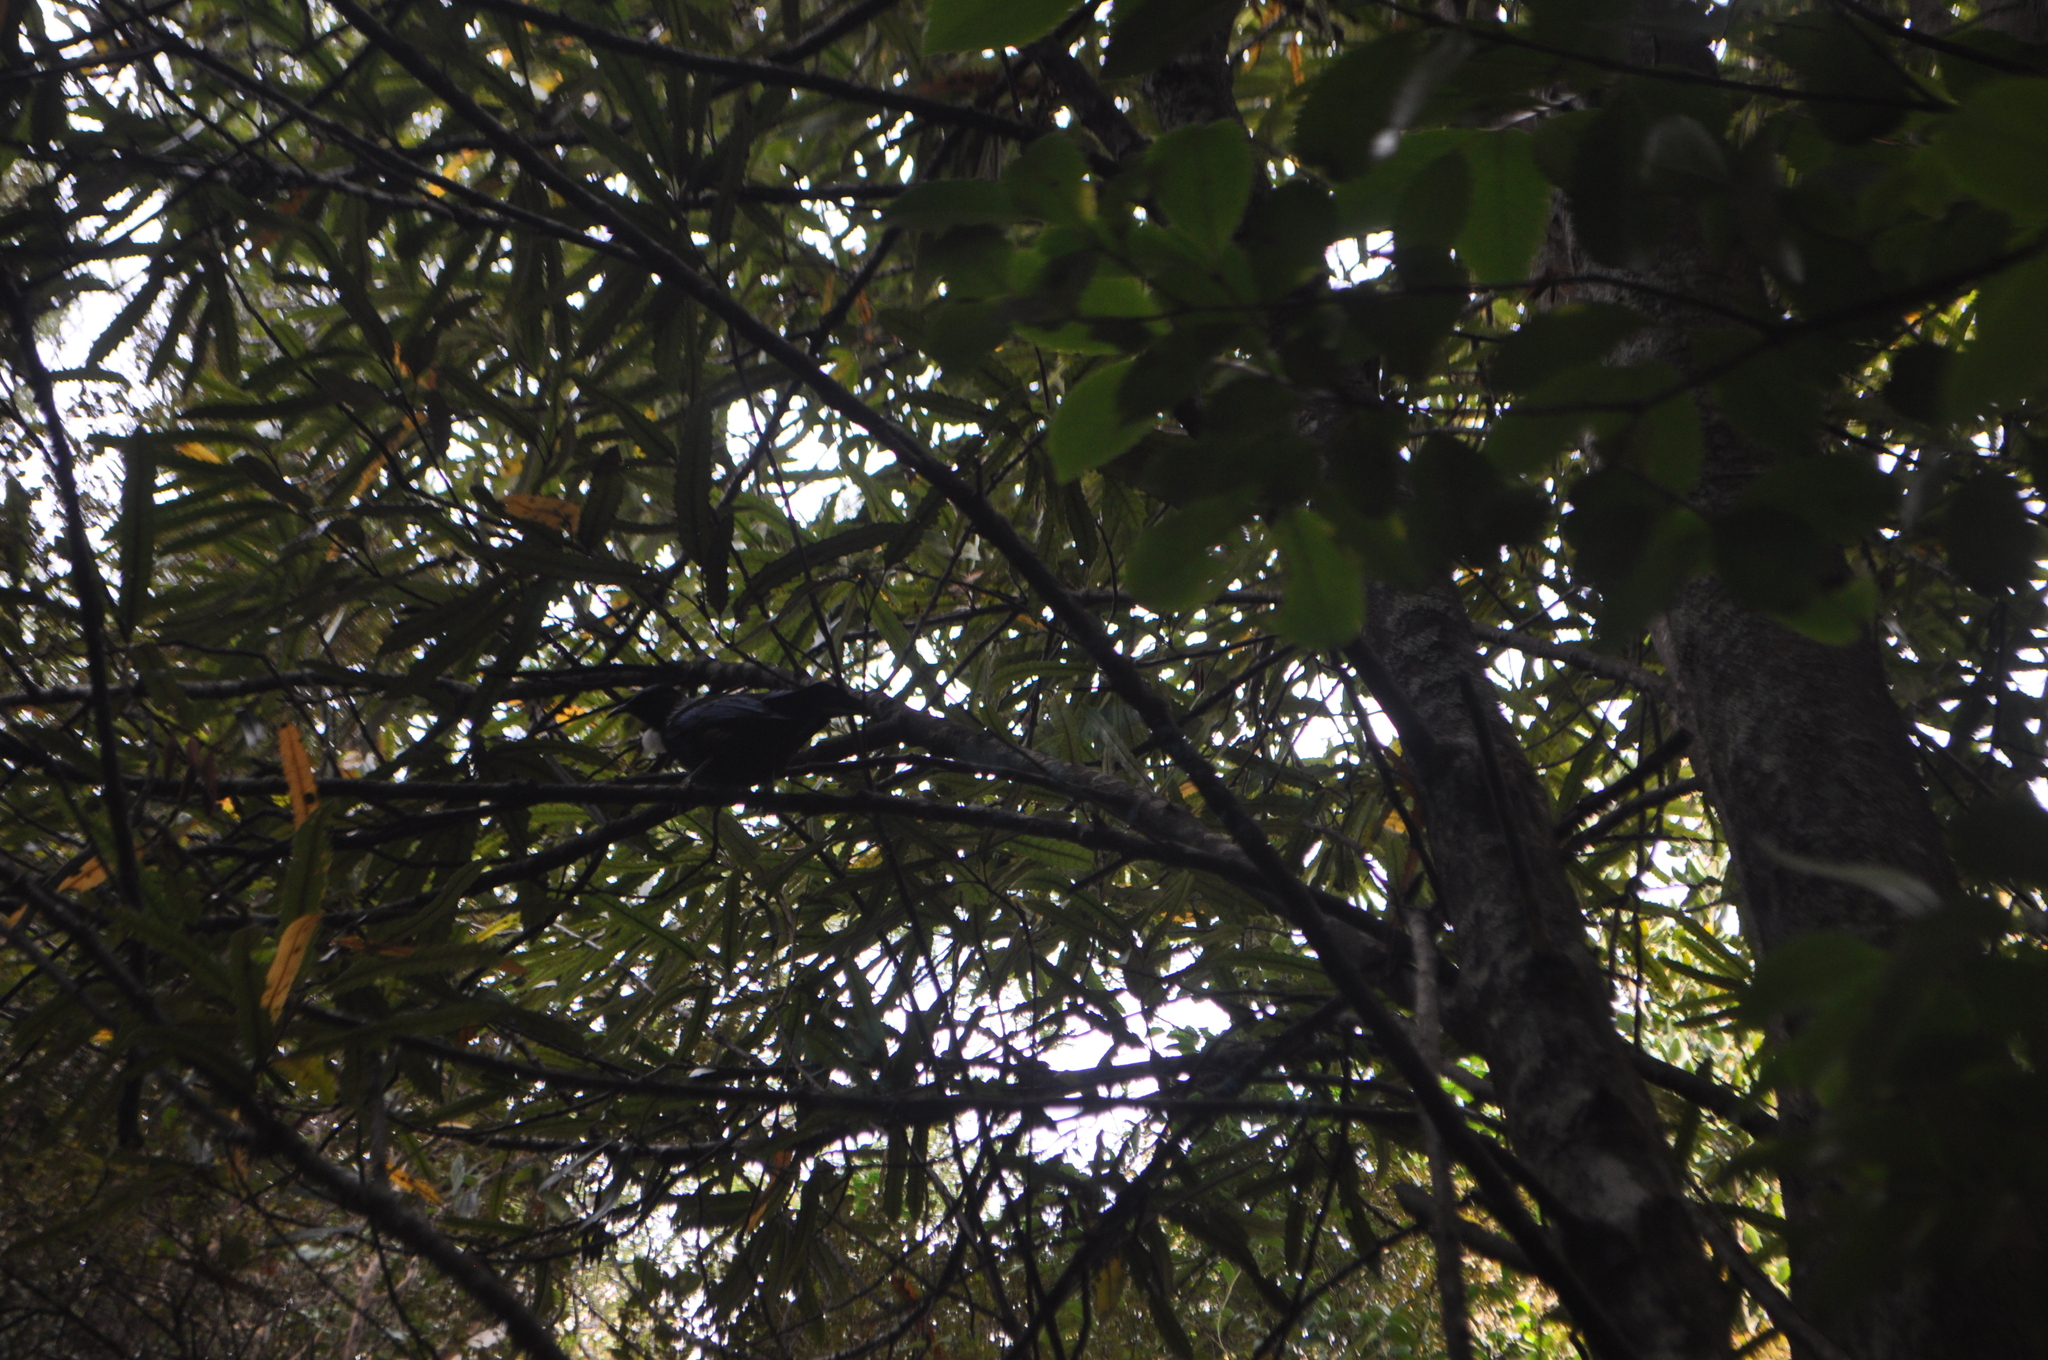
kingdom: Animalia
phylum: Chordata
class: Aves
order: Passeriformes
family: Meliphagidae
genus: Prosthemadera
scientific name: Prosthemadera novaeseelandiae
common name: Tui
